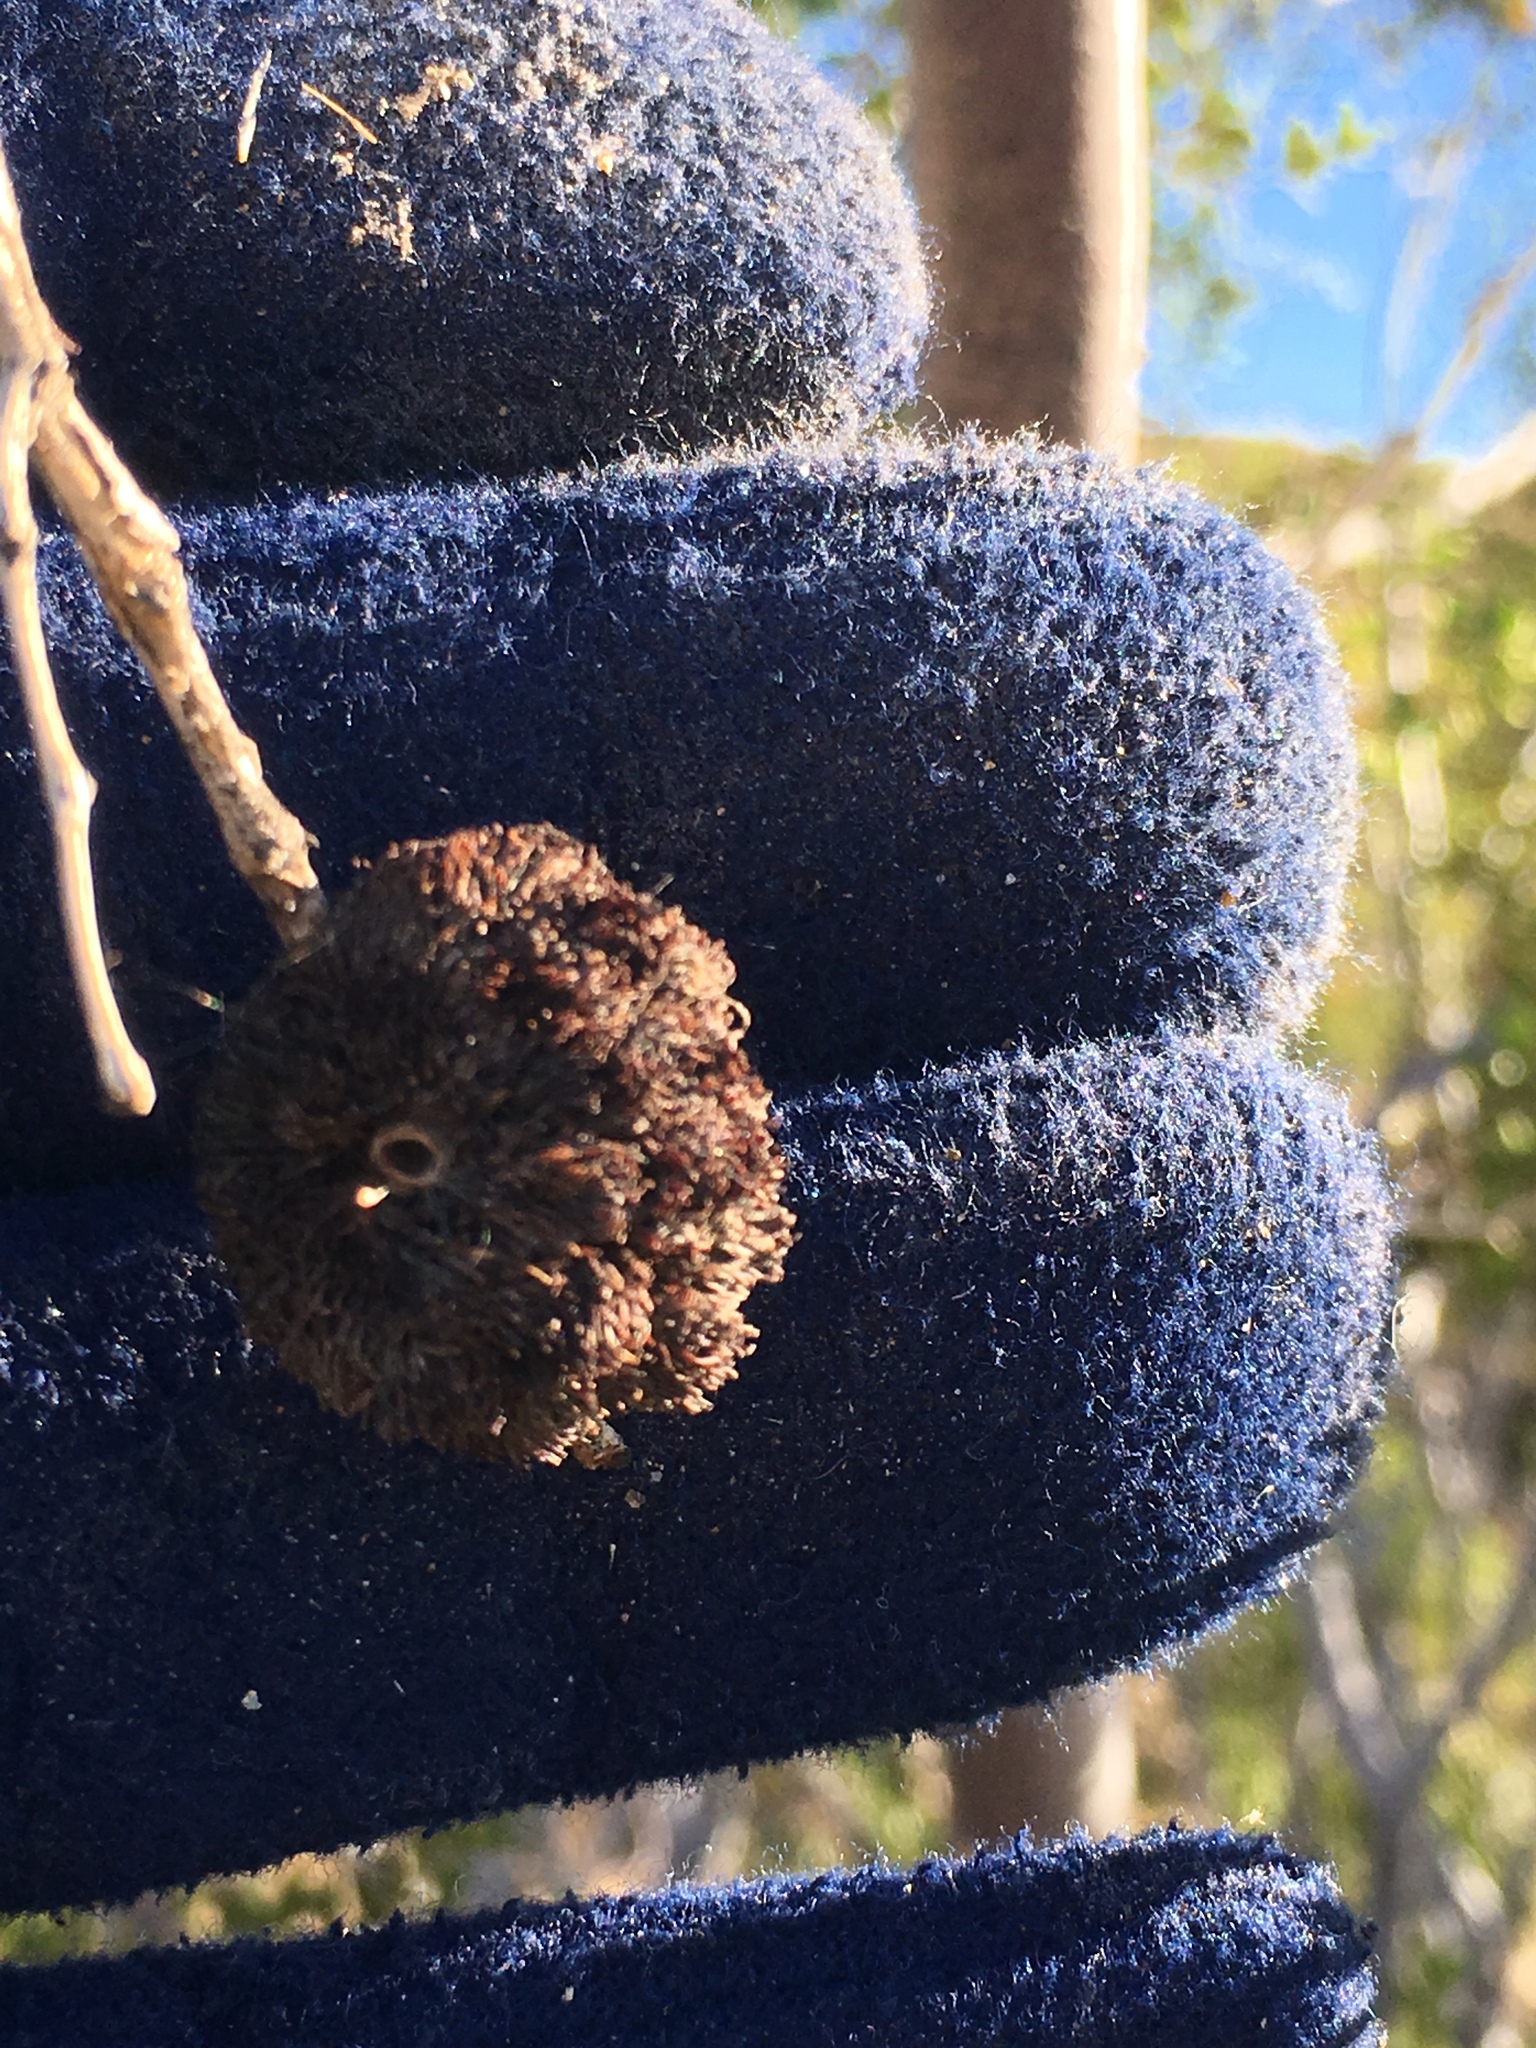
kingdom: Animalia
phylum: Arthropoda
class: Insecta
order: Diptera
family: Cecidomyiidae
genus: Asphondylia
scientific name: Asphondylia auripila
